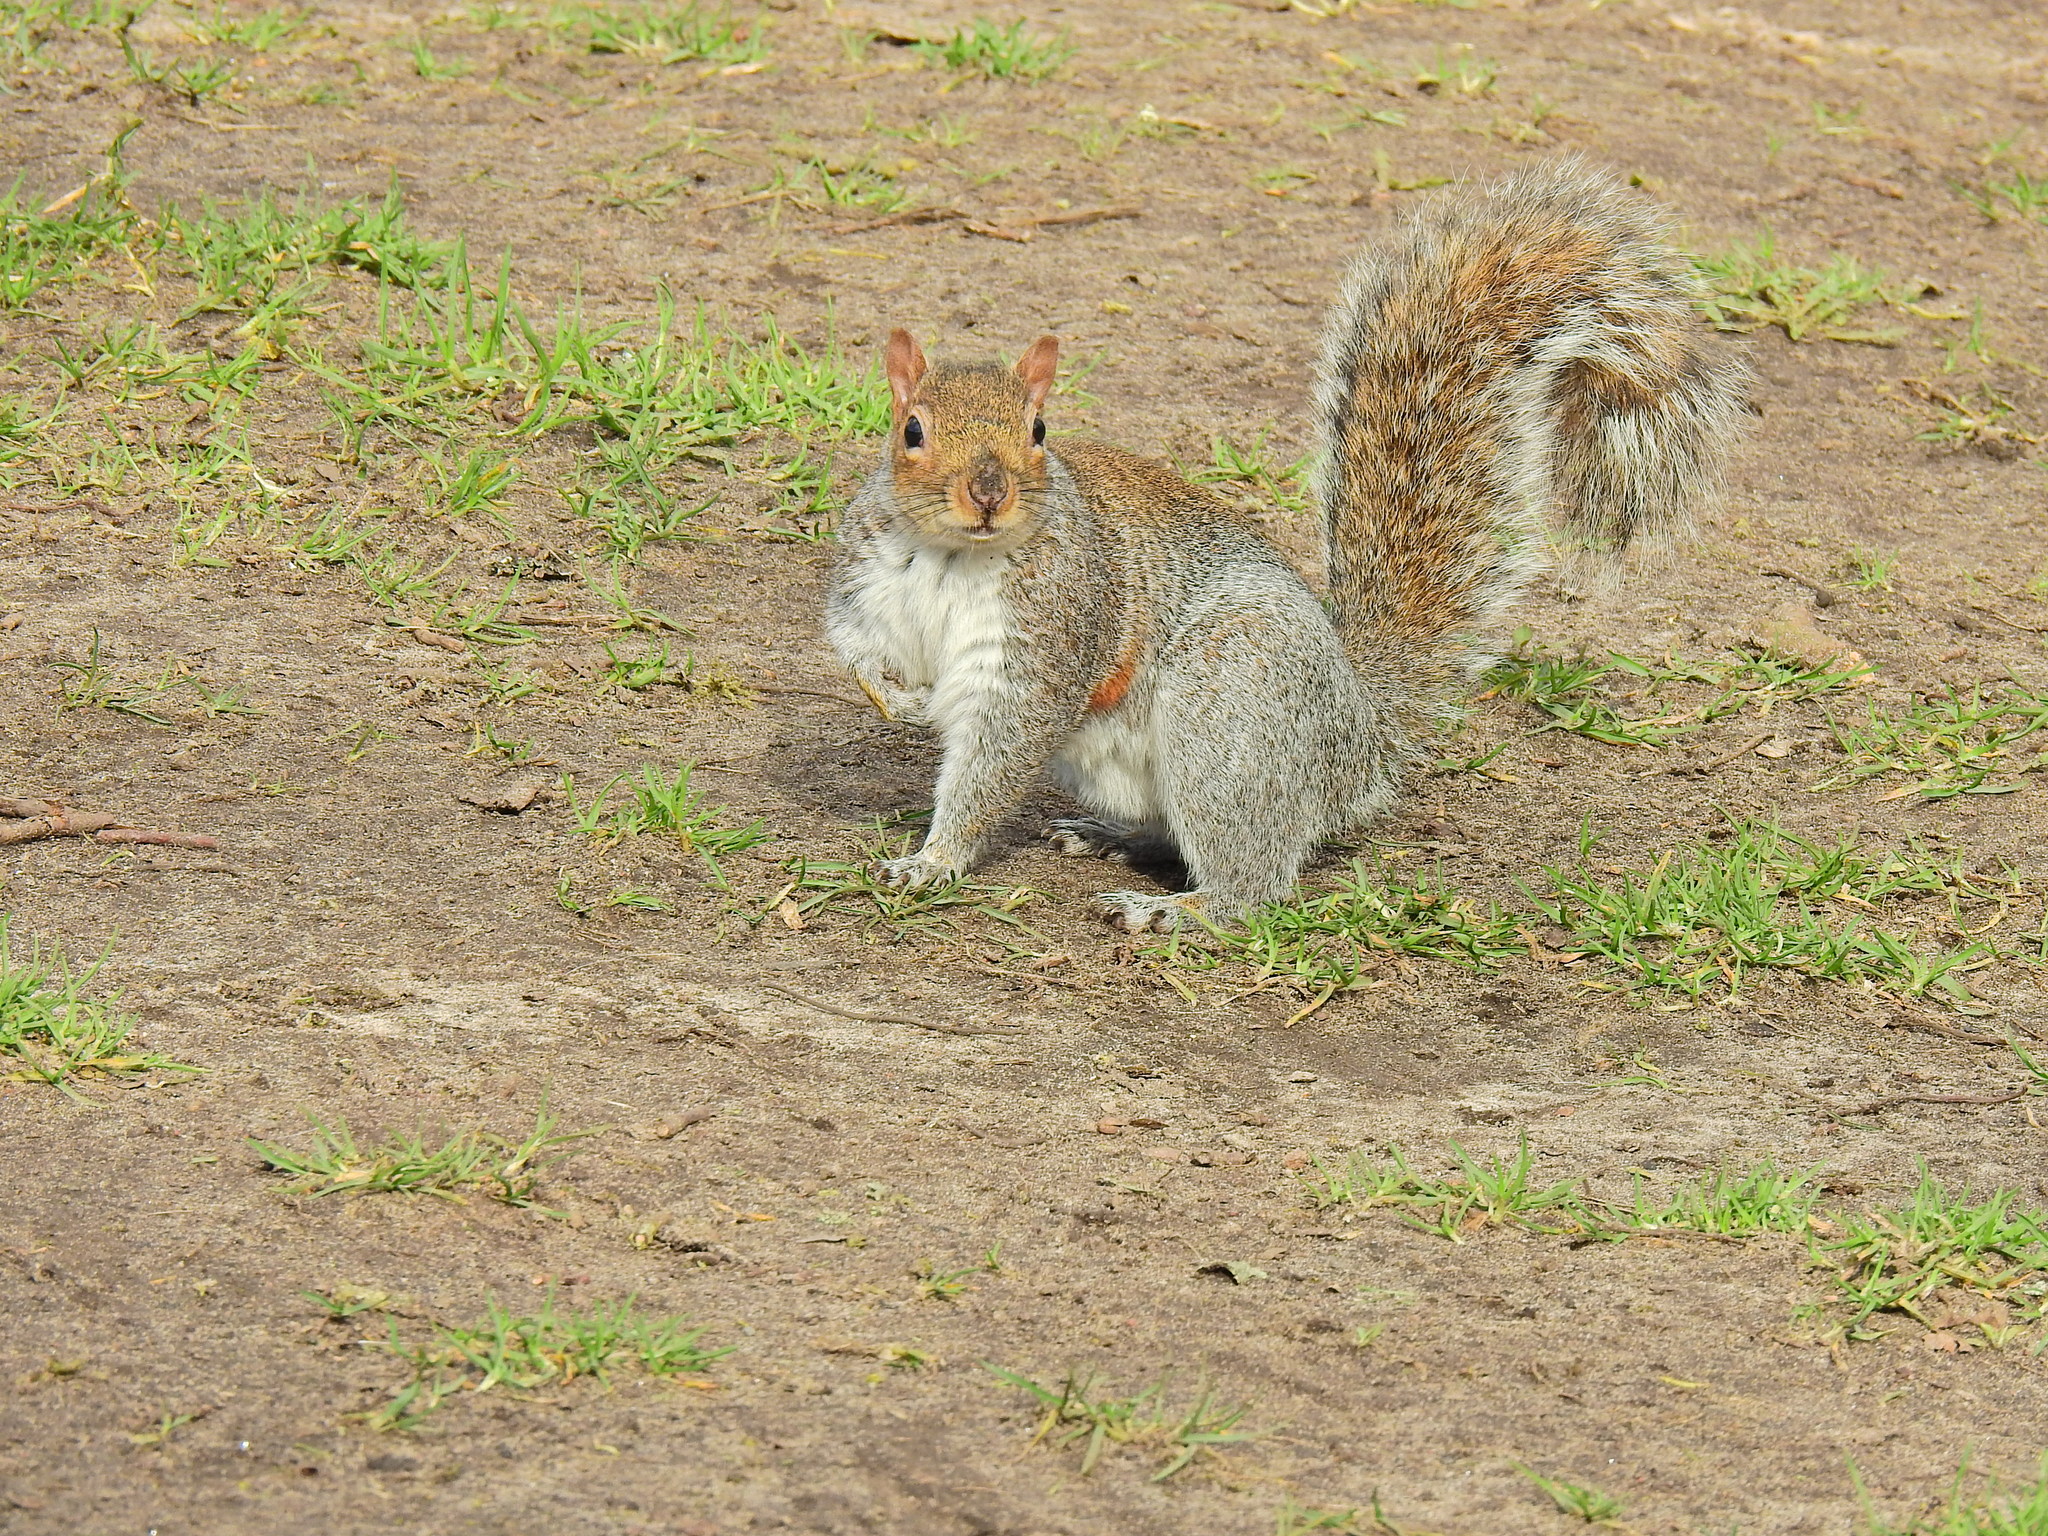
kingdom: Animalia
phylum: Chordata
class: Mammalia
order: Rodentia
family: Sciuridae
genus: Sciurus
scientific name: Sciurus carolinensis
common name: Eastern gray squirrel
